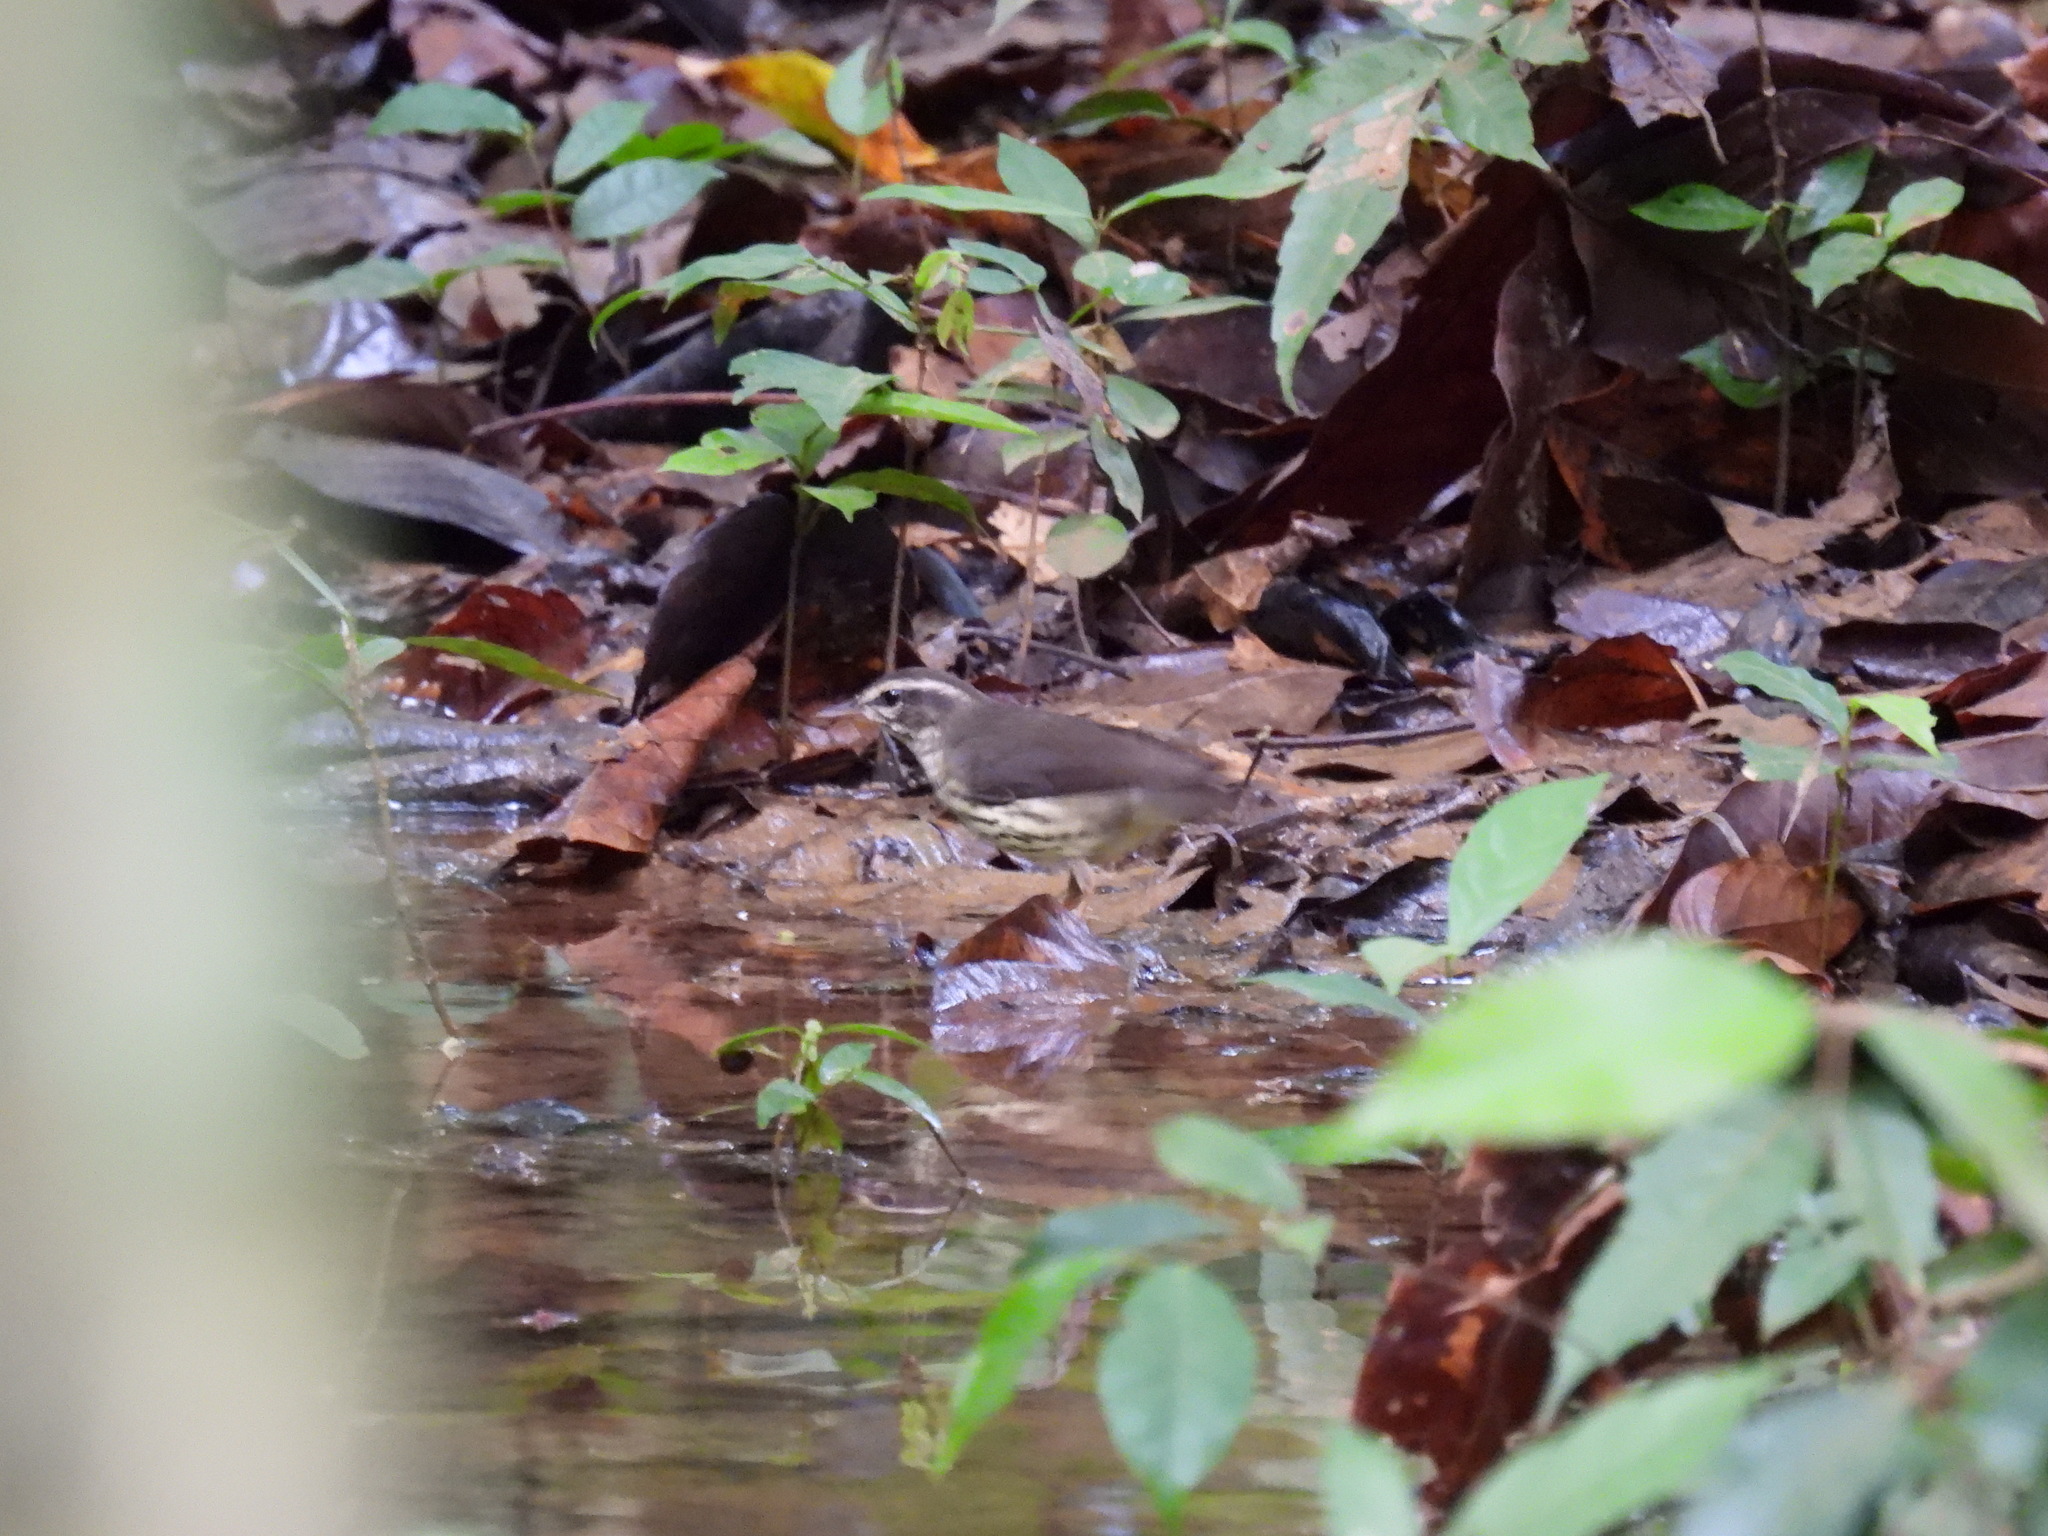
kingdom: Animalia
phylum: Chordata
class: Aves
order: Passeriformes
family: Parulidae
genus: Parkesia
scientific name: Parkesia noveboracensis
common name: Northern waterthrush
